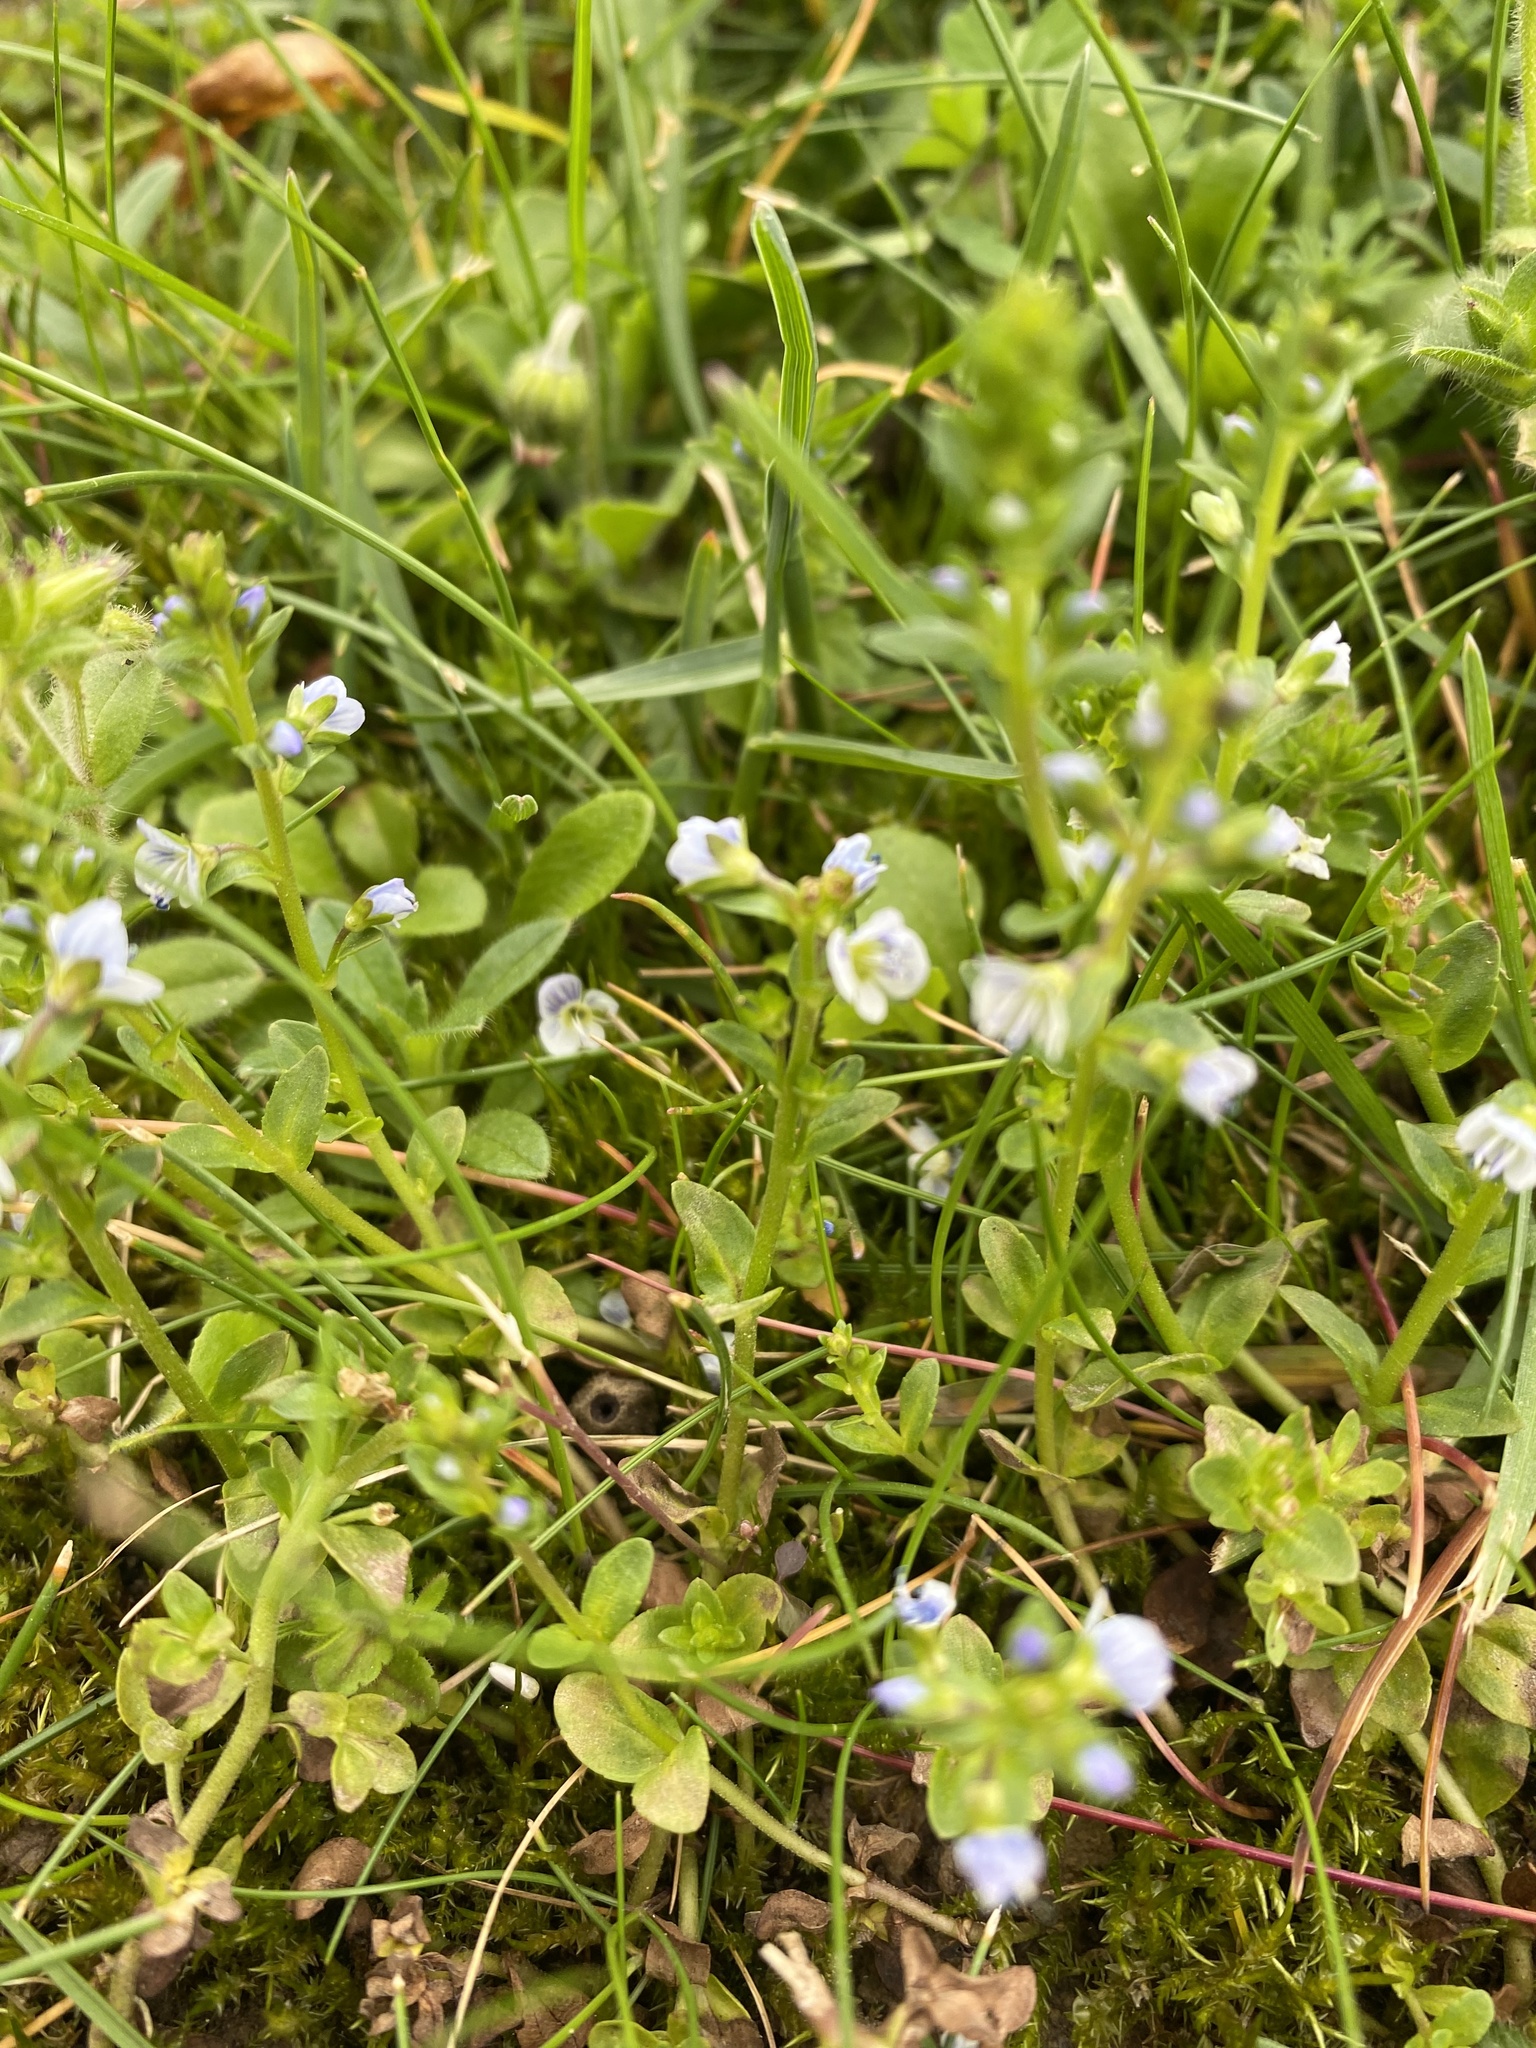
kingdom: Plantae
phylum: Tracheophyta
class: Magnoliopsida
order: Lamiales
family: Plantaginaceae
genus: Veronica
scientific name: Veronica serpyllifolia
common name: Thyme-leaved speedwell
